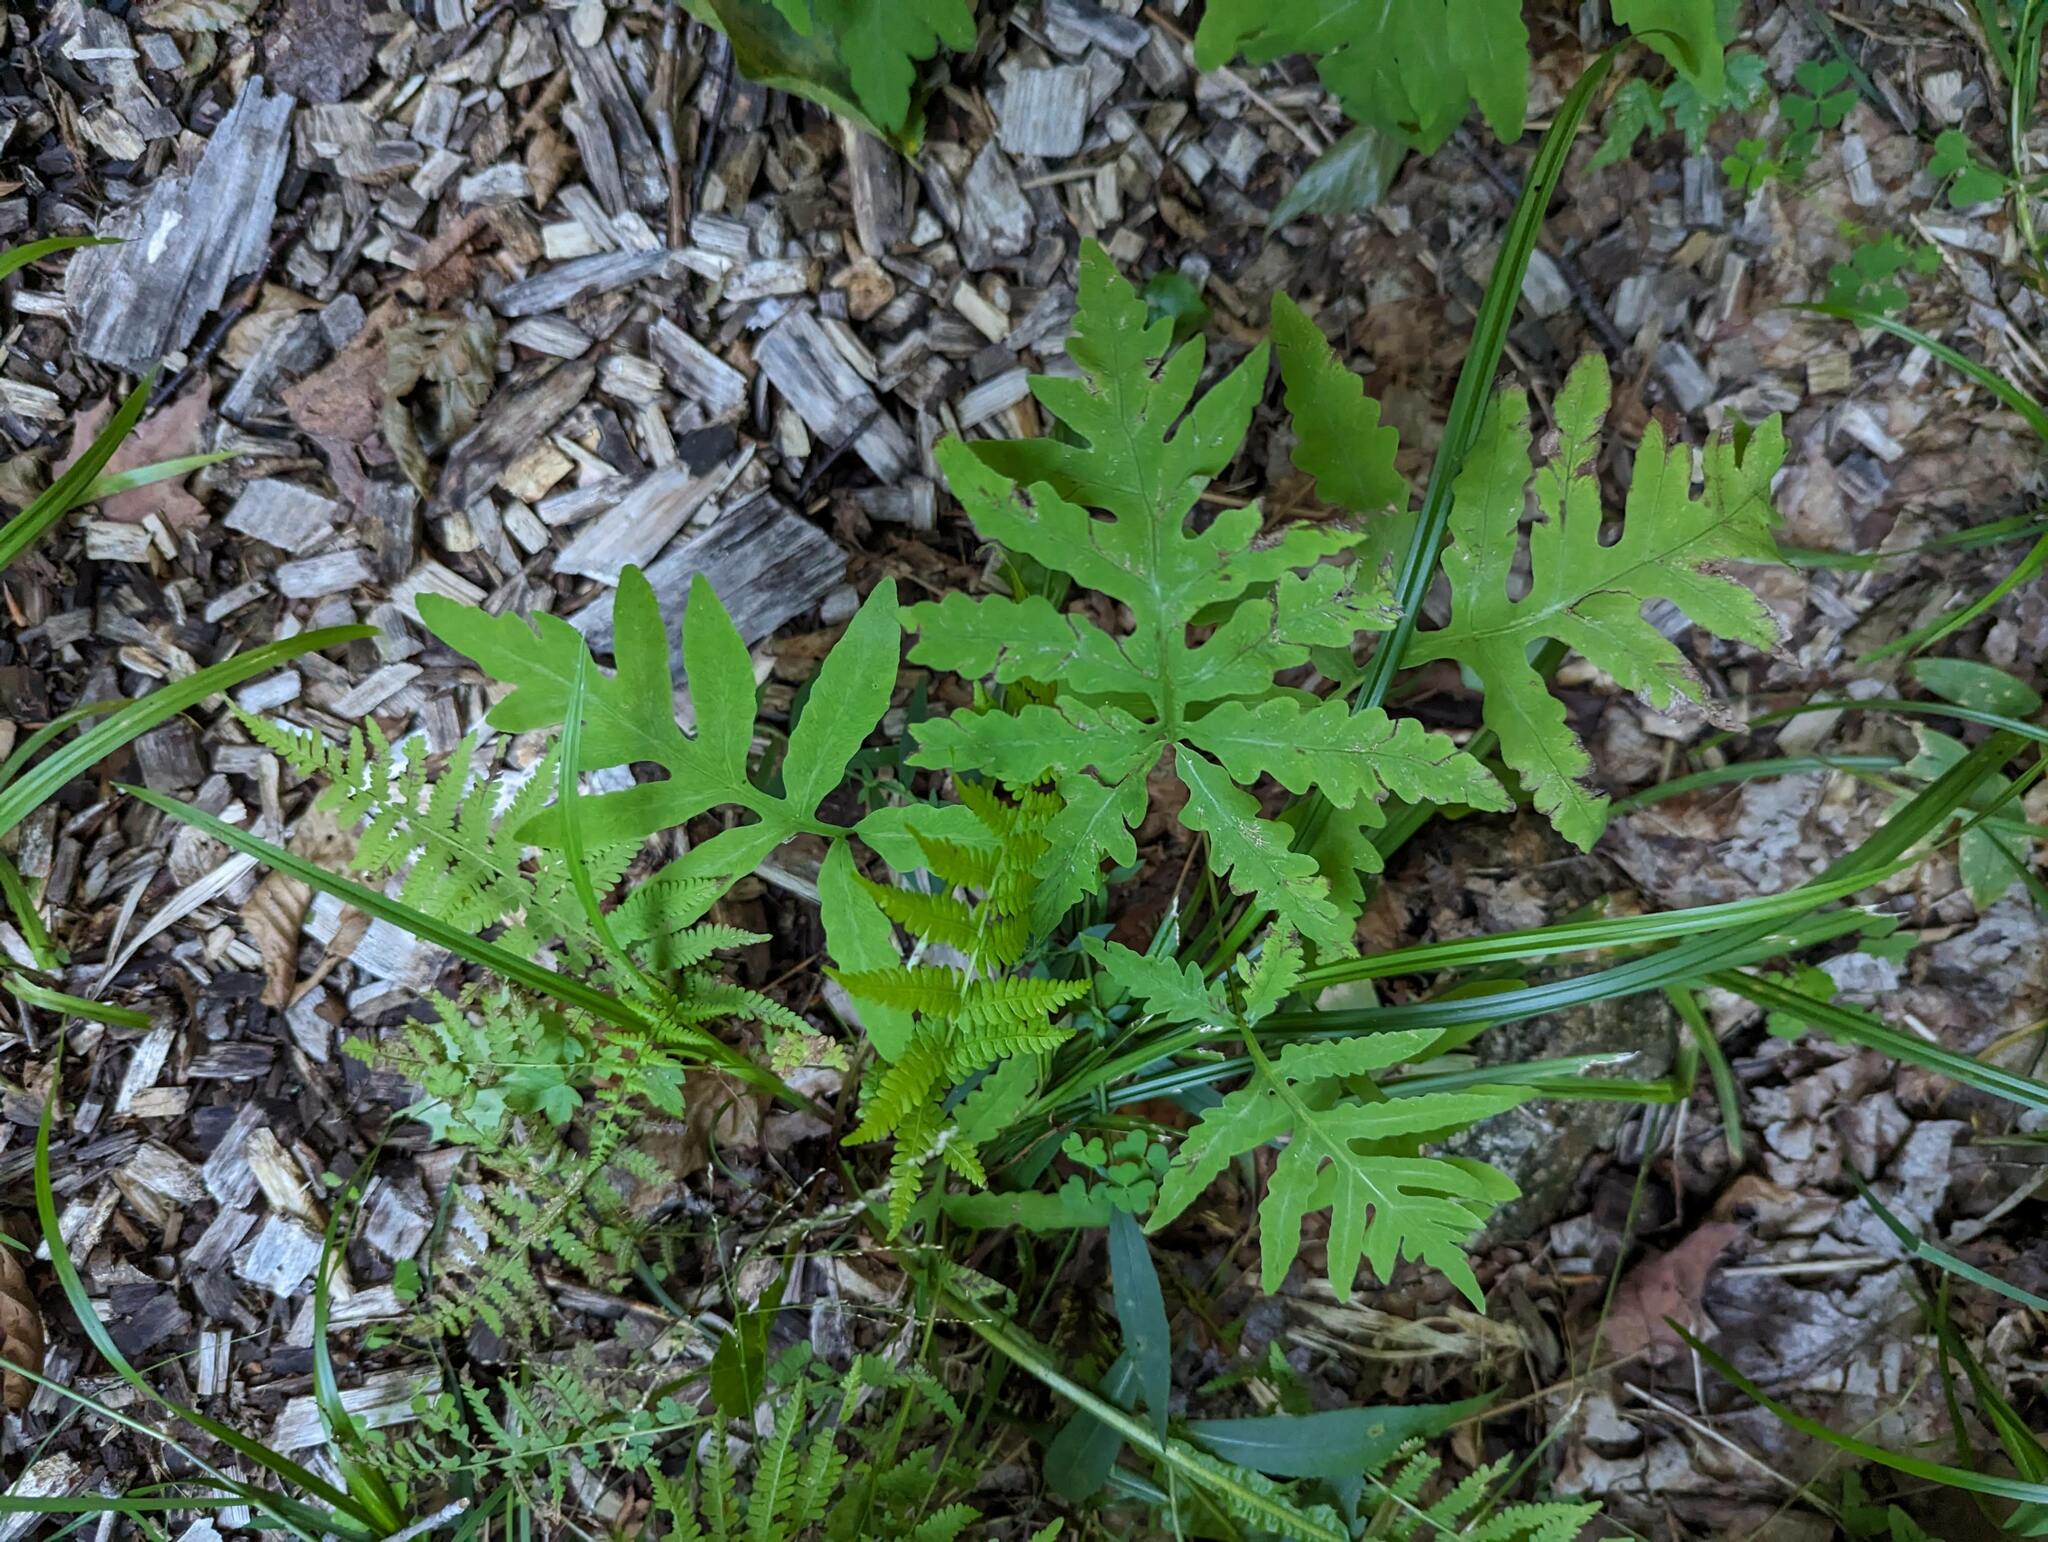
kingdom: Plantae
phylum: Tracheophyta
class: Polypodiopsida
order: Polypodiales
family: Onocleaceae
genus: Onoclea
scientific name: Onoclea sensibilis
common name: Sensitive fern
